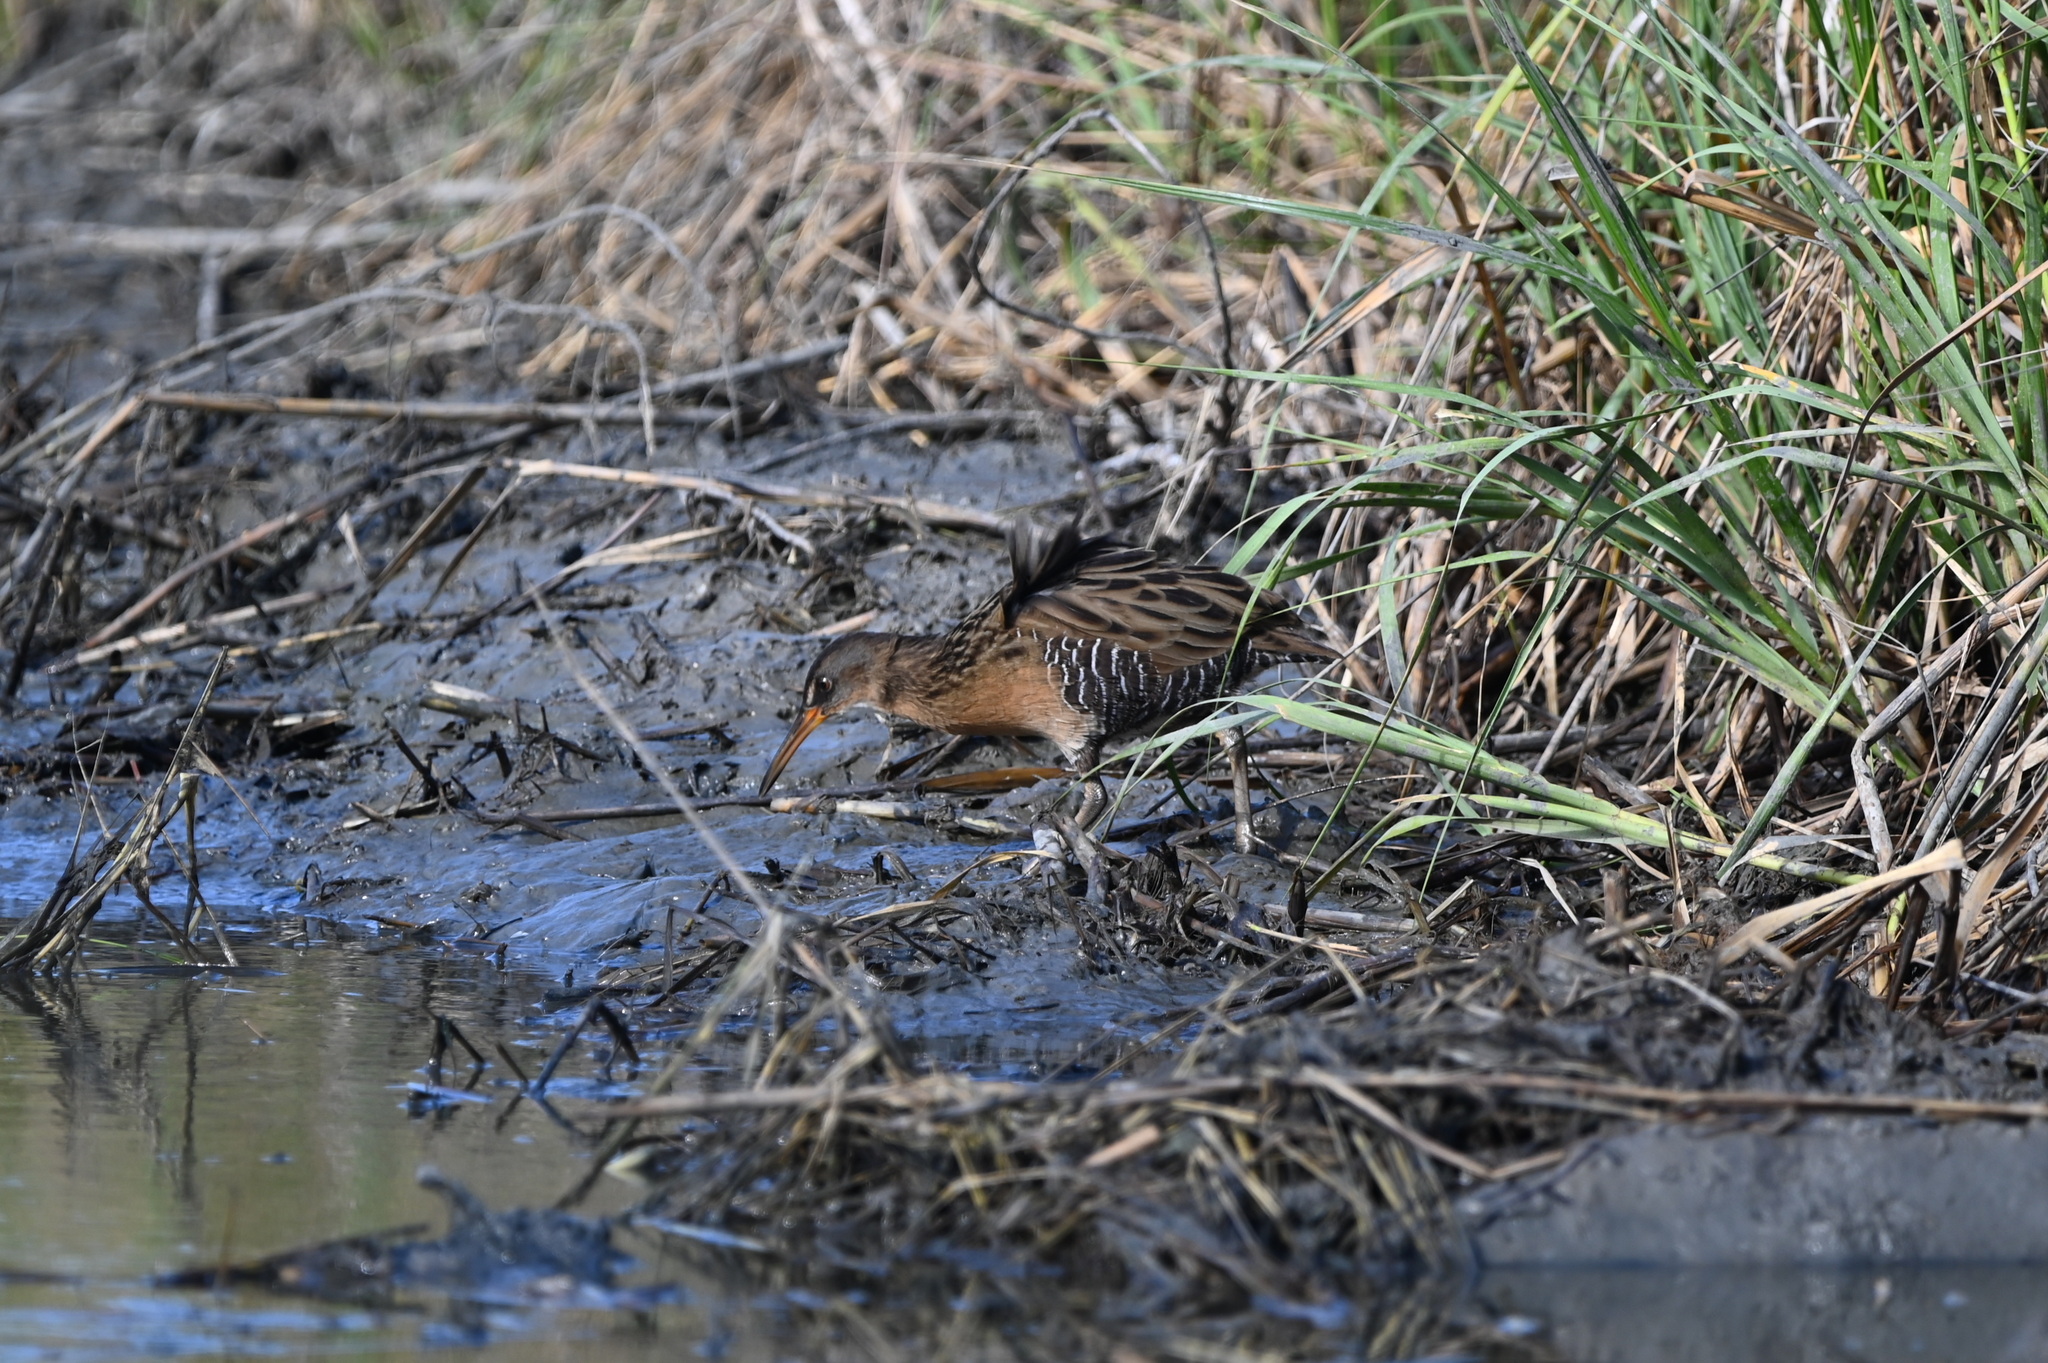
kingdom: Animalia
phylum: Chordata
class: Aves
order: Gruiformes
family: Rallidae
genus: Rallus
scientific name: Rallus crepitans
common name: Clapper rail
